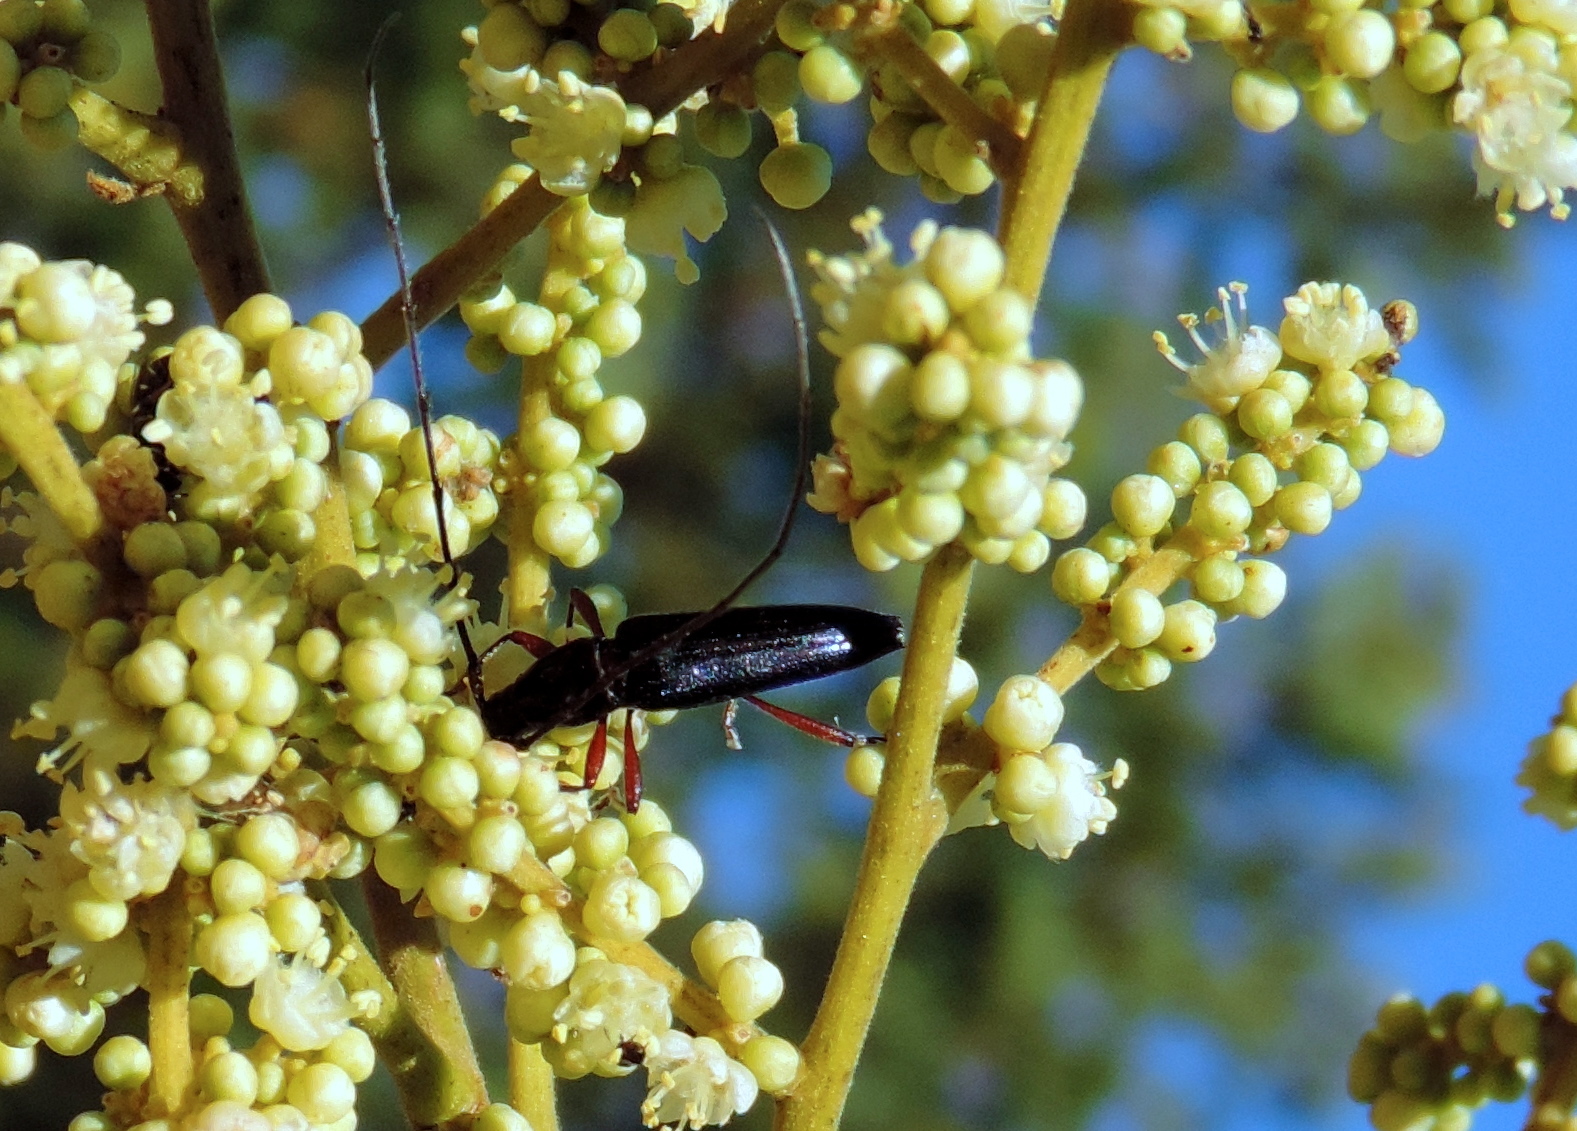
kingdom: Animalia
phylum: Arthropoda
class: Insecta
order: Coleoptera
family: Cerambycidae
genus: Stenosphenus
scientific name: Stenosphenus
